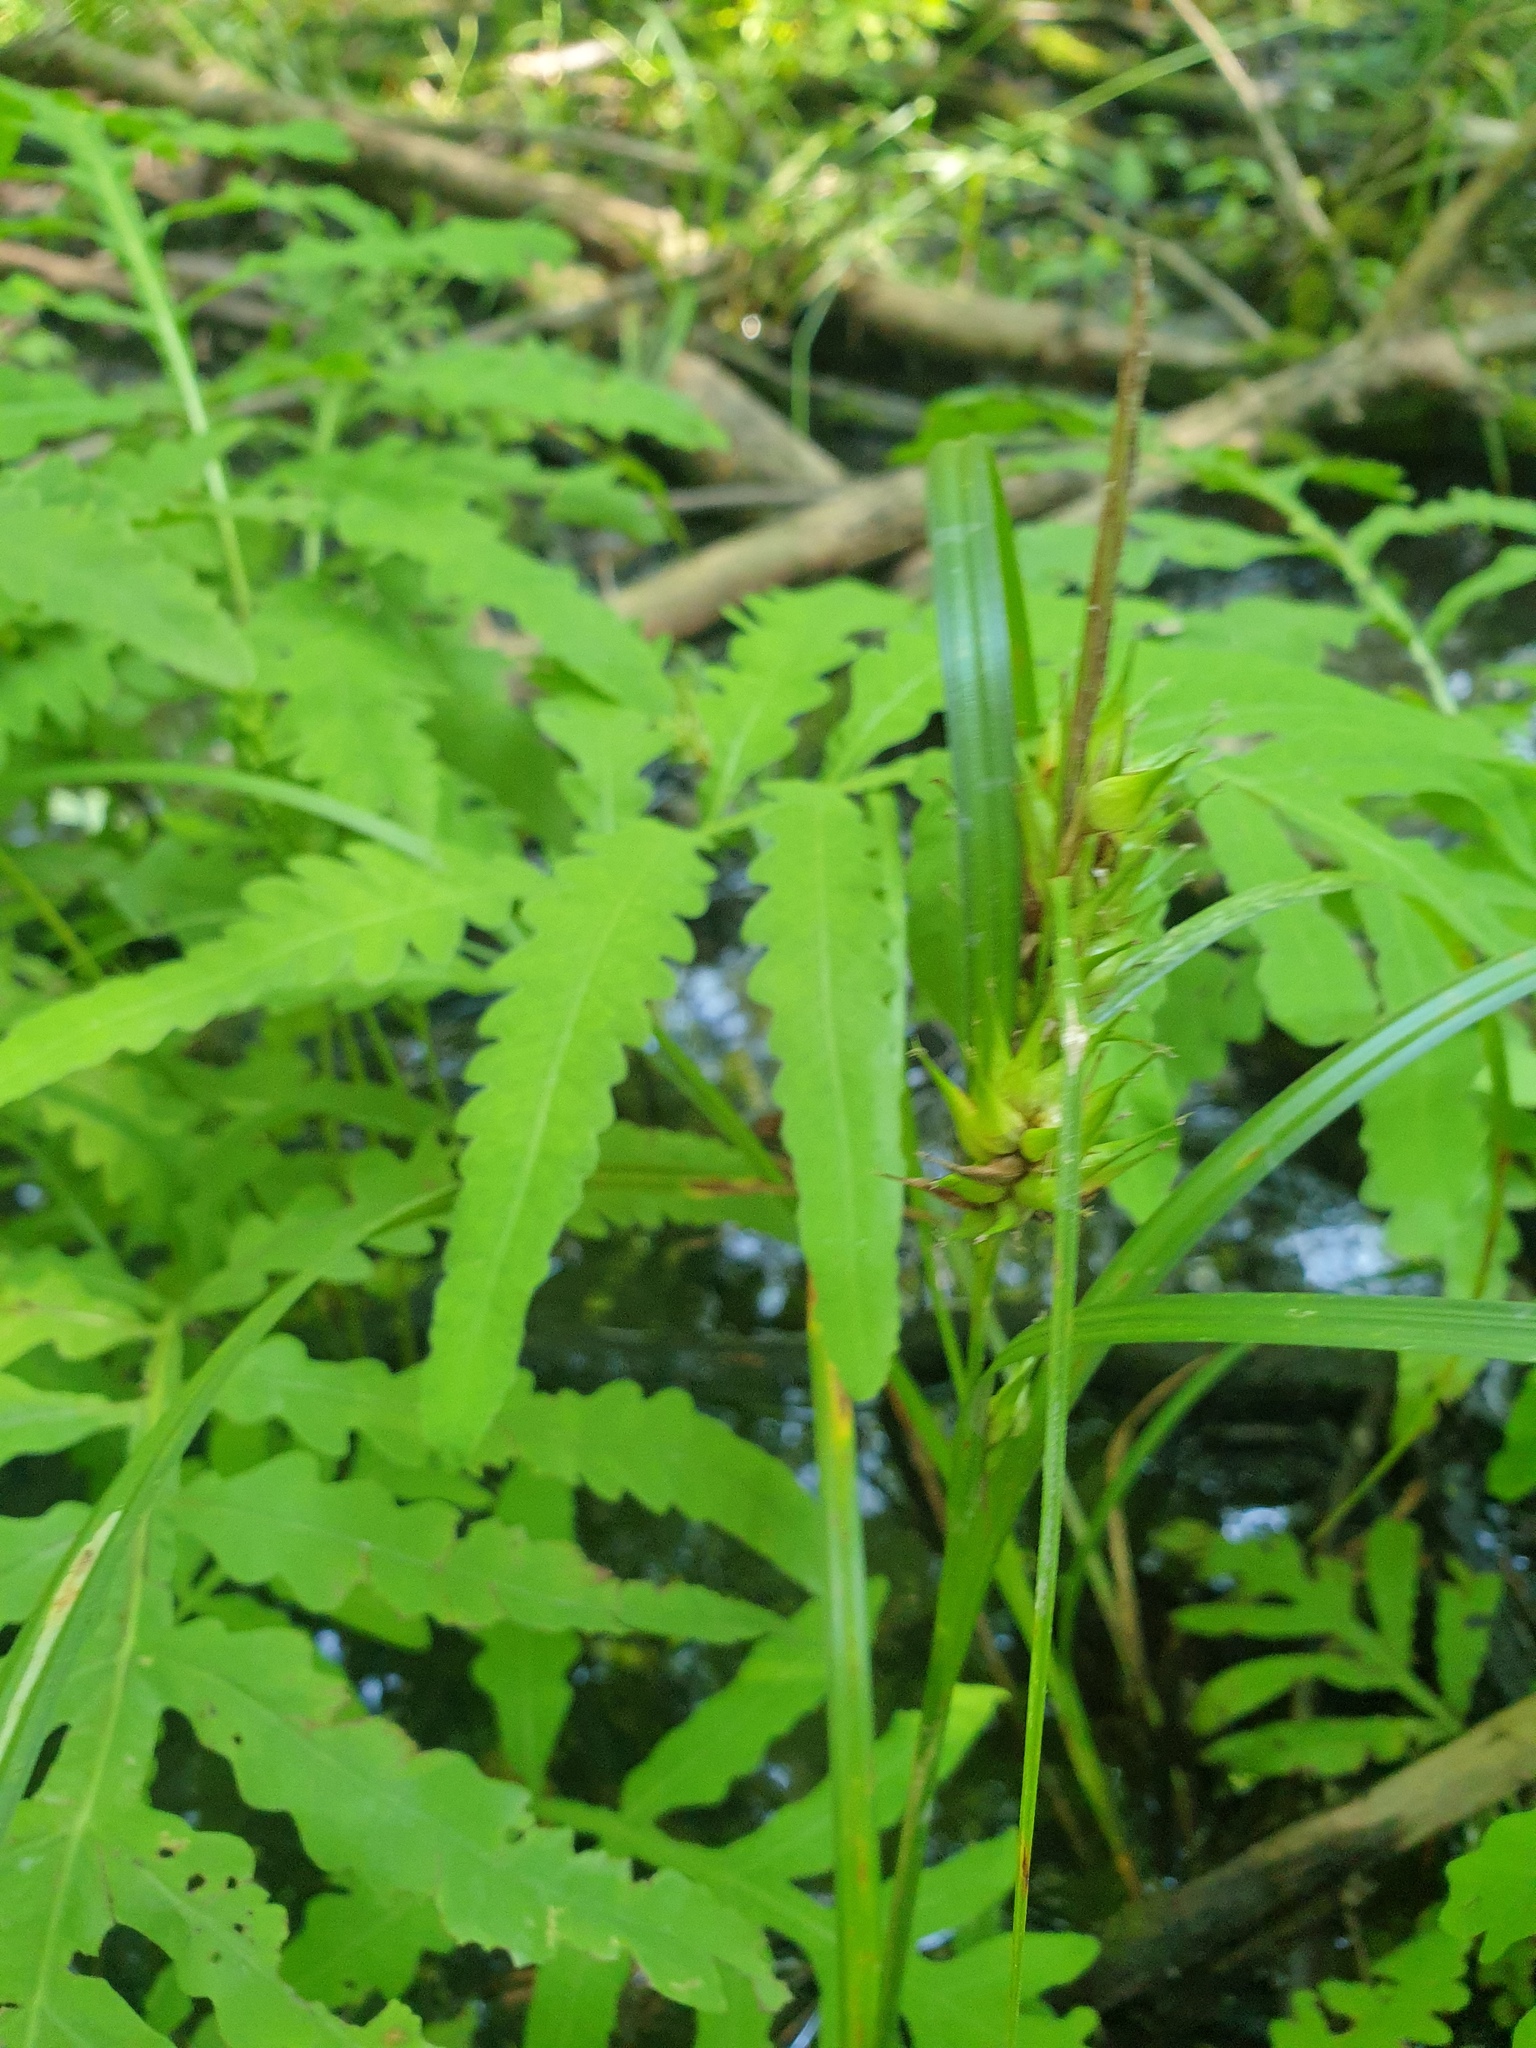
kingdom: Plantae
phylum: Tracheophyta
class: Liliopsida
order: Poales
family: Cyperaceae
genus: Carex
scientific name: Carex lupulina
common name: Hop sedge
